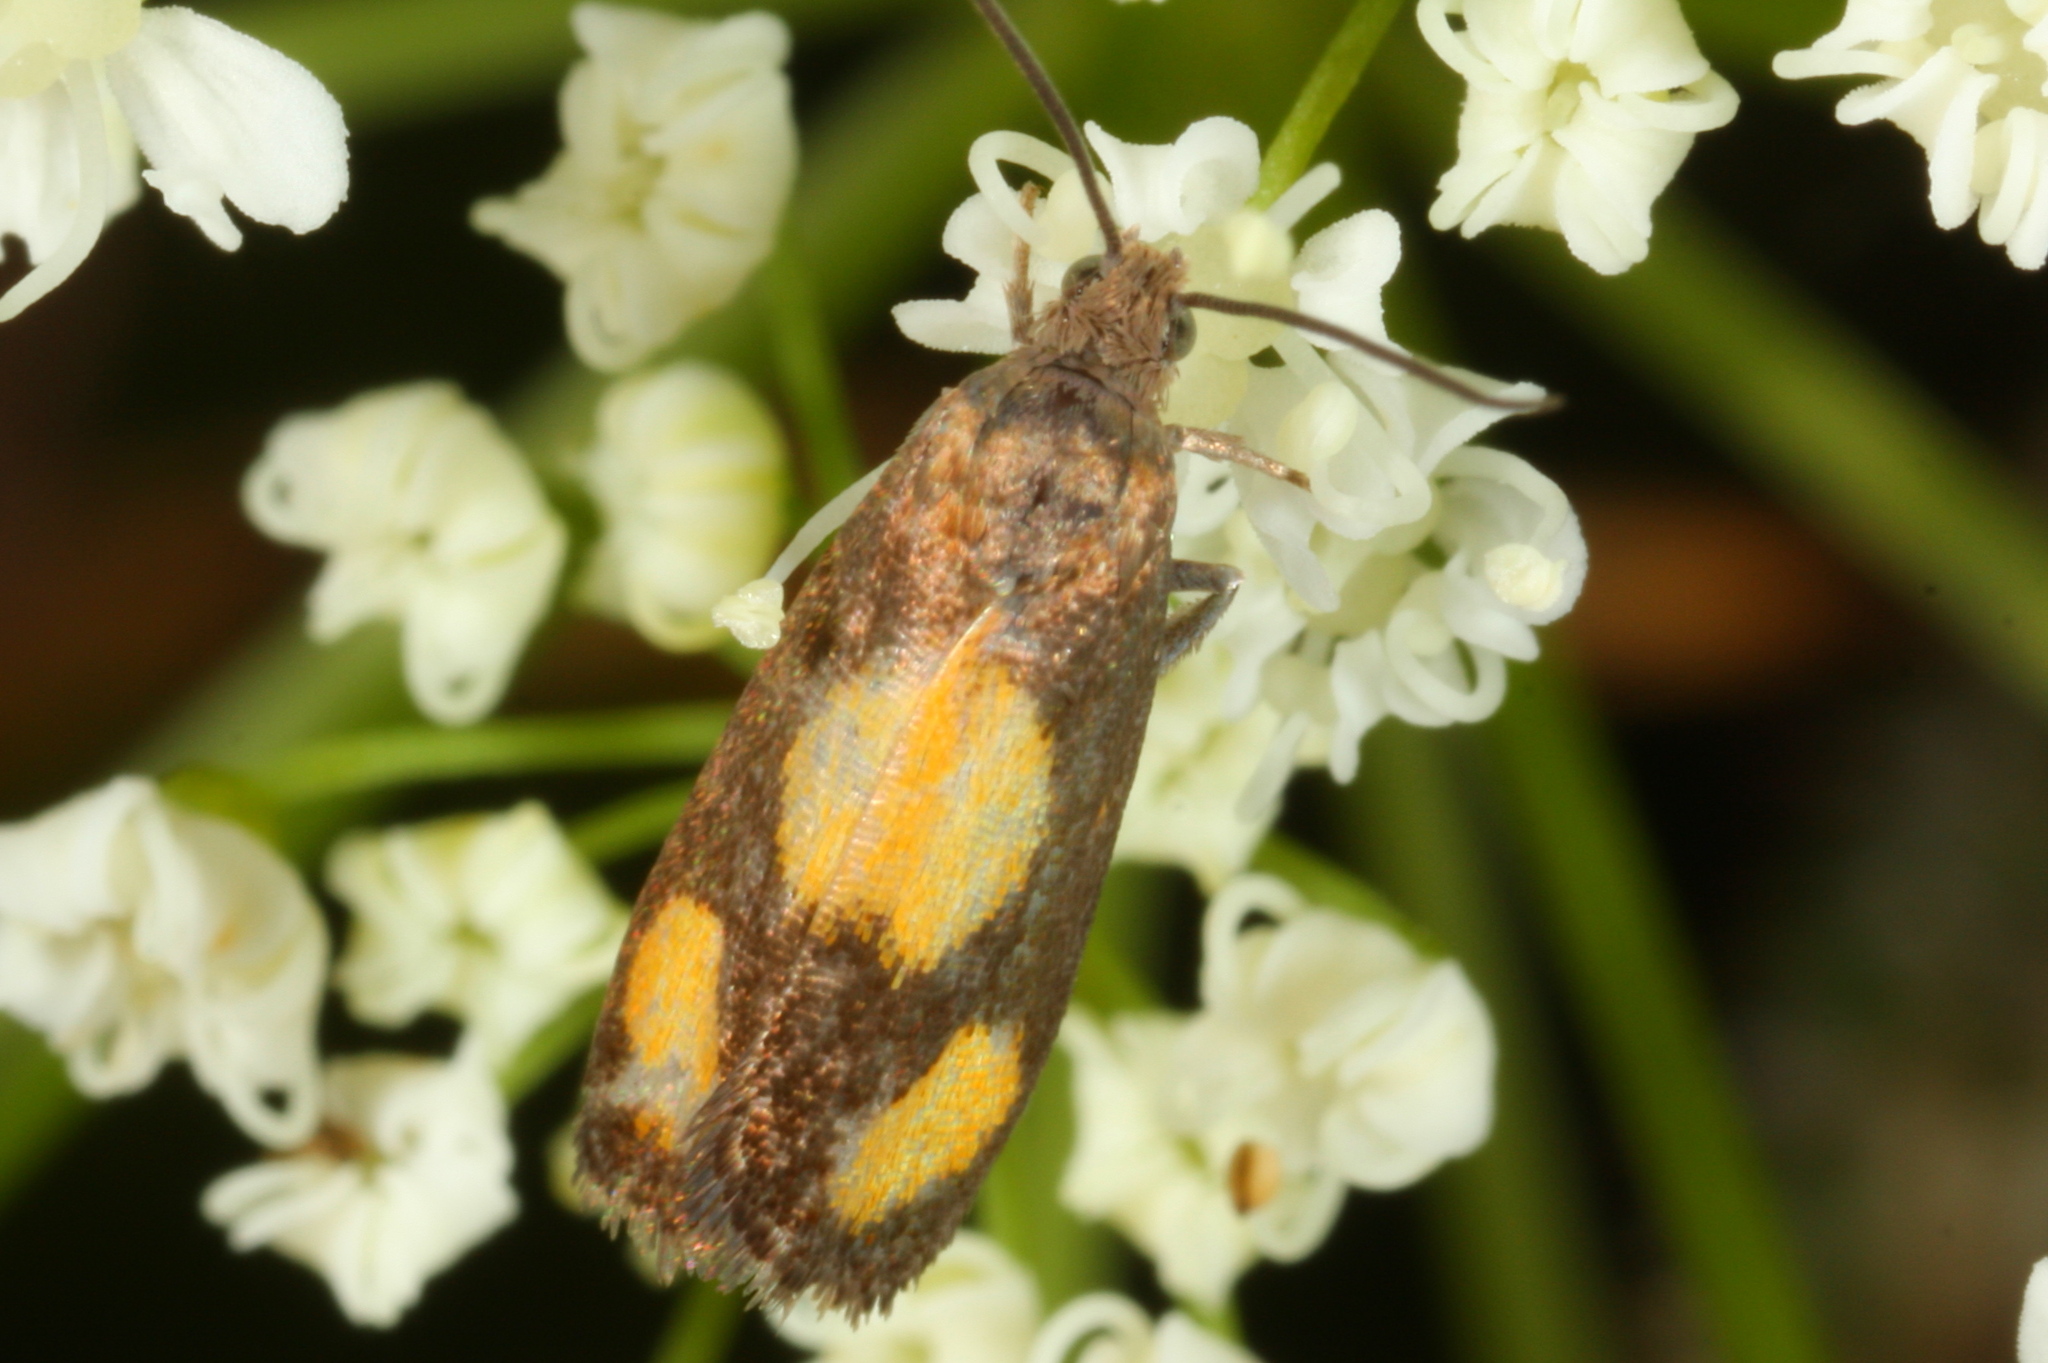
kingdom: Animalia
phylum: Arthropoda
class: Insecta
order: Lepidoptera
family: Tortricidae
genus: Pammene
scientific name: Pammene aurana
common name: Orange-spot piercer
